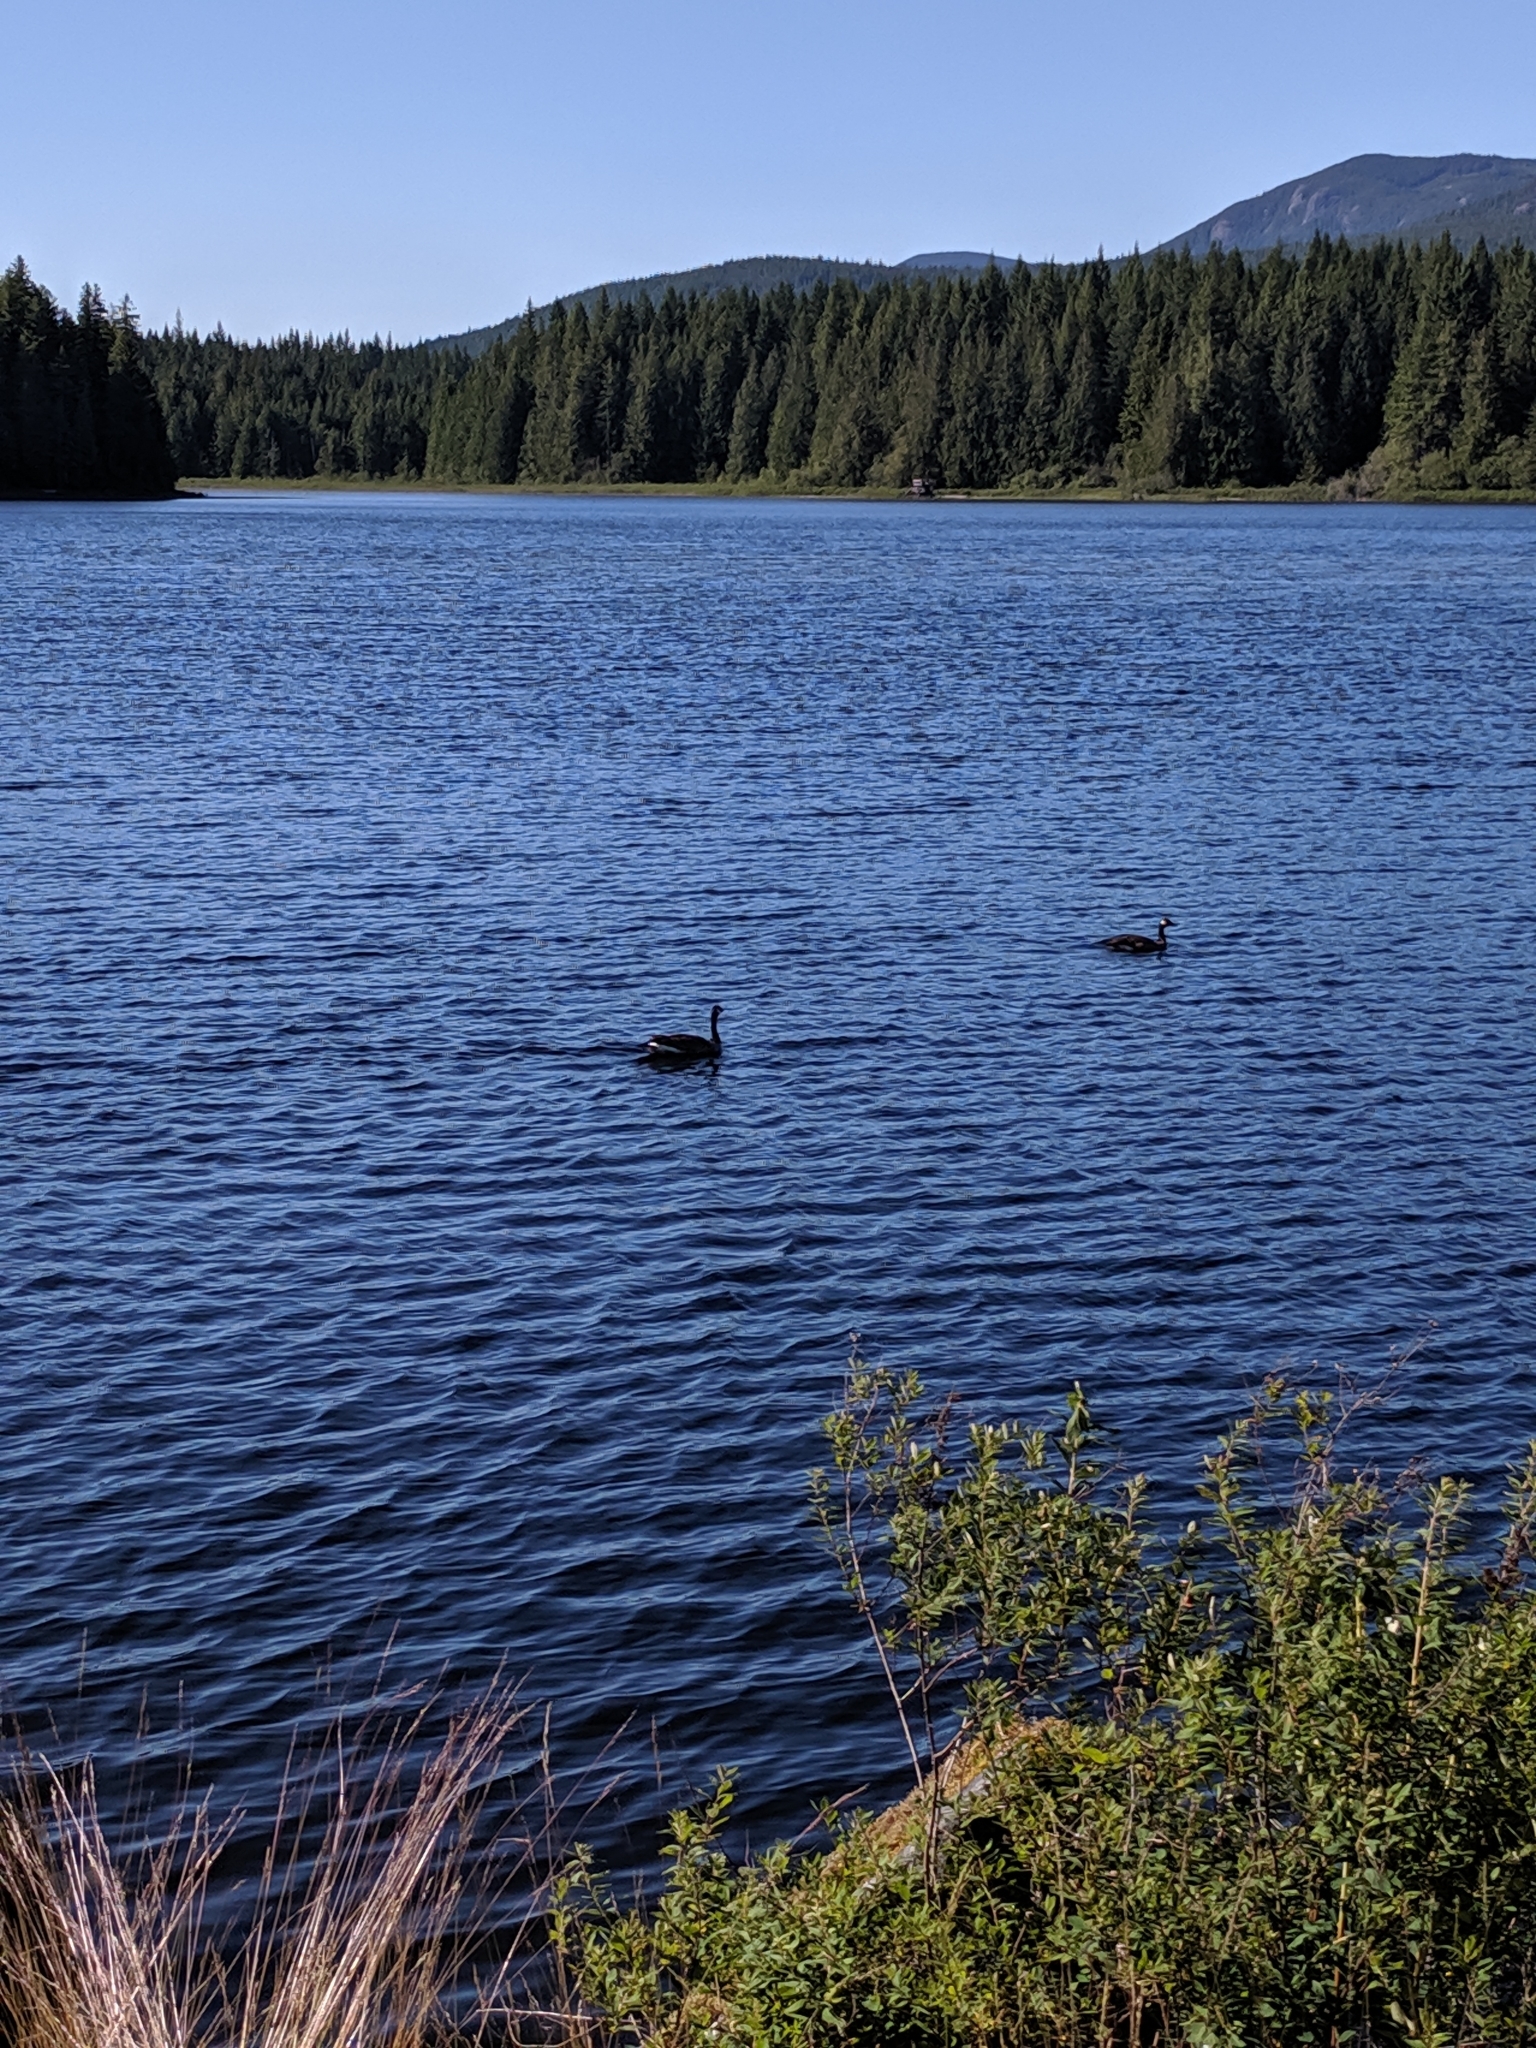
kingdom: Animalia
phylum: Chordata
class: Aves
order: Anseriformes
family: Anatidae
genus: Branta
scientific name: Branta canadensis
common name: Canada goose
